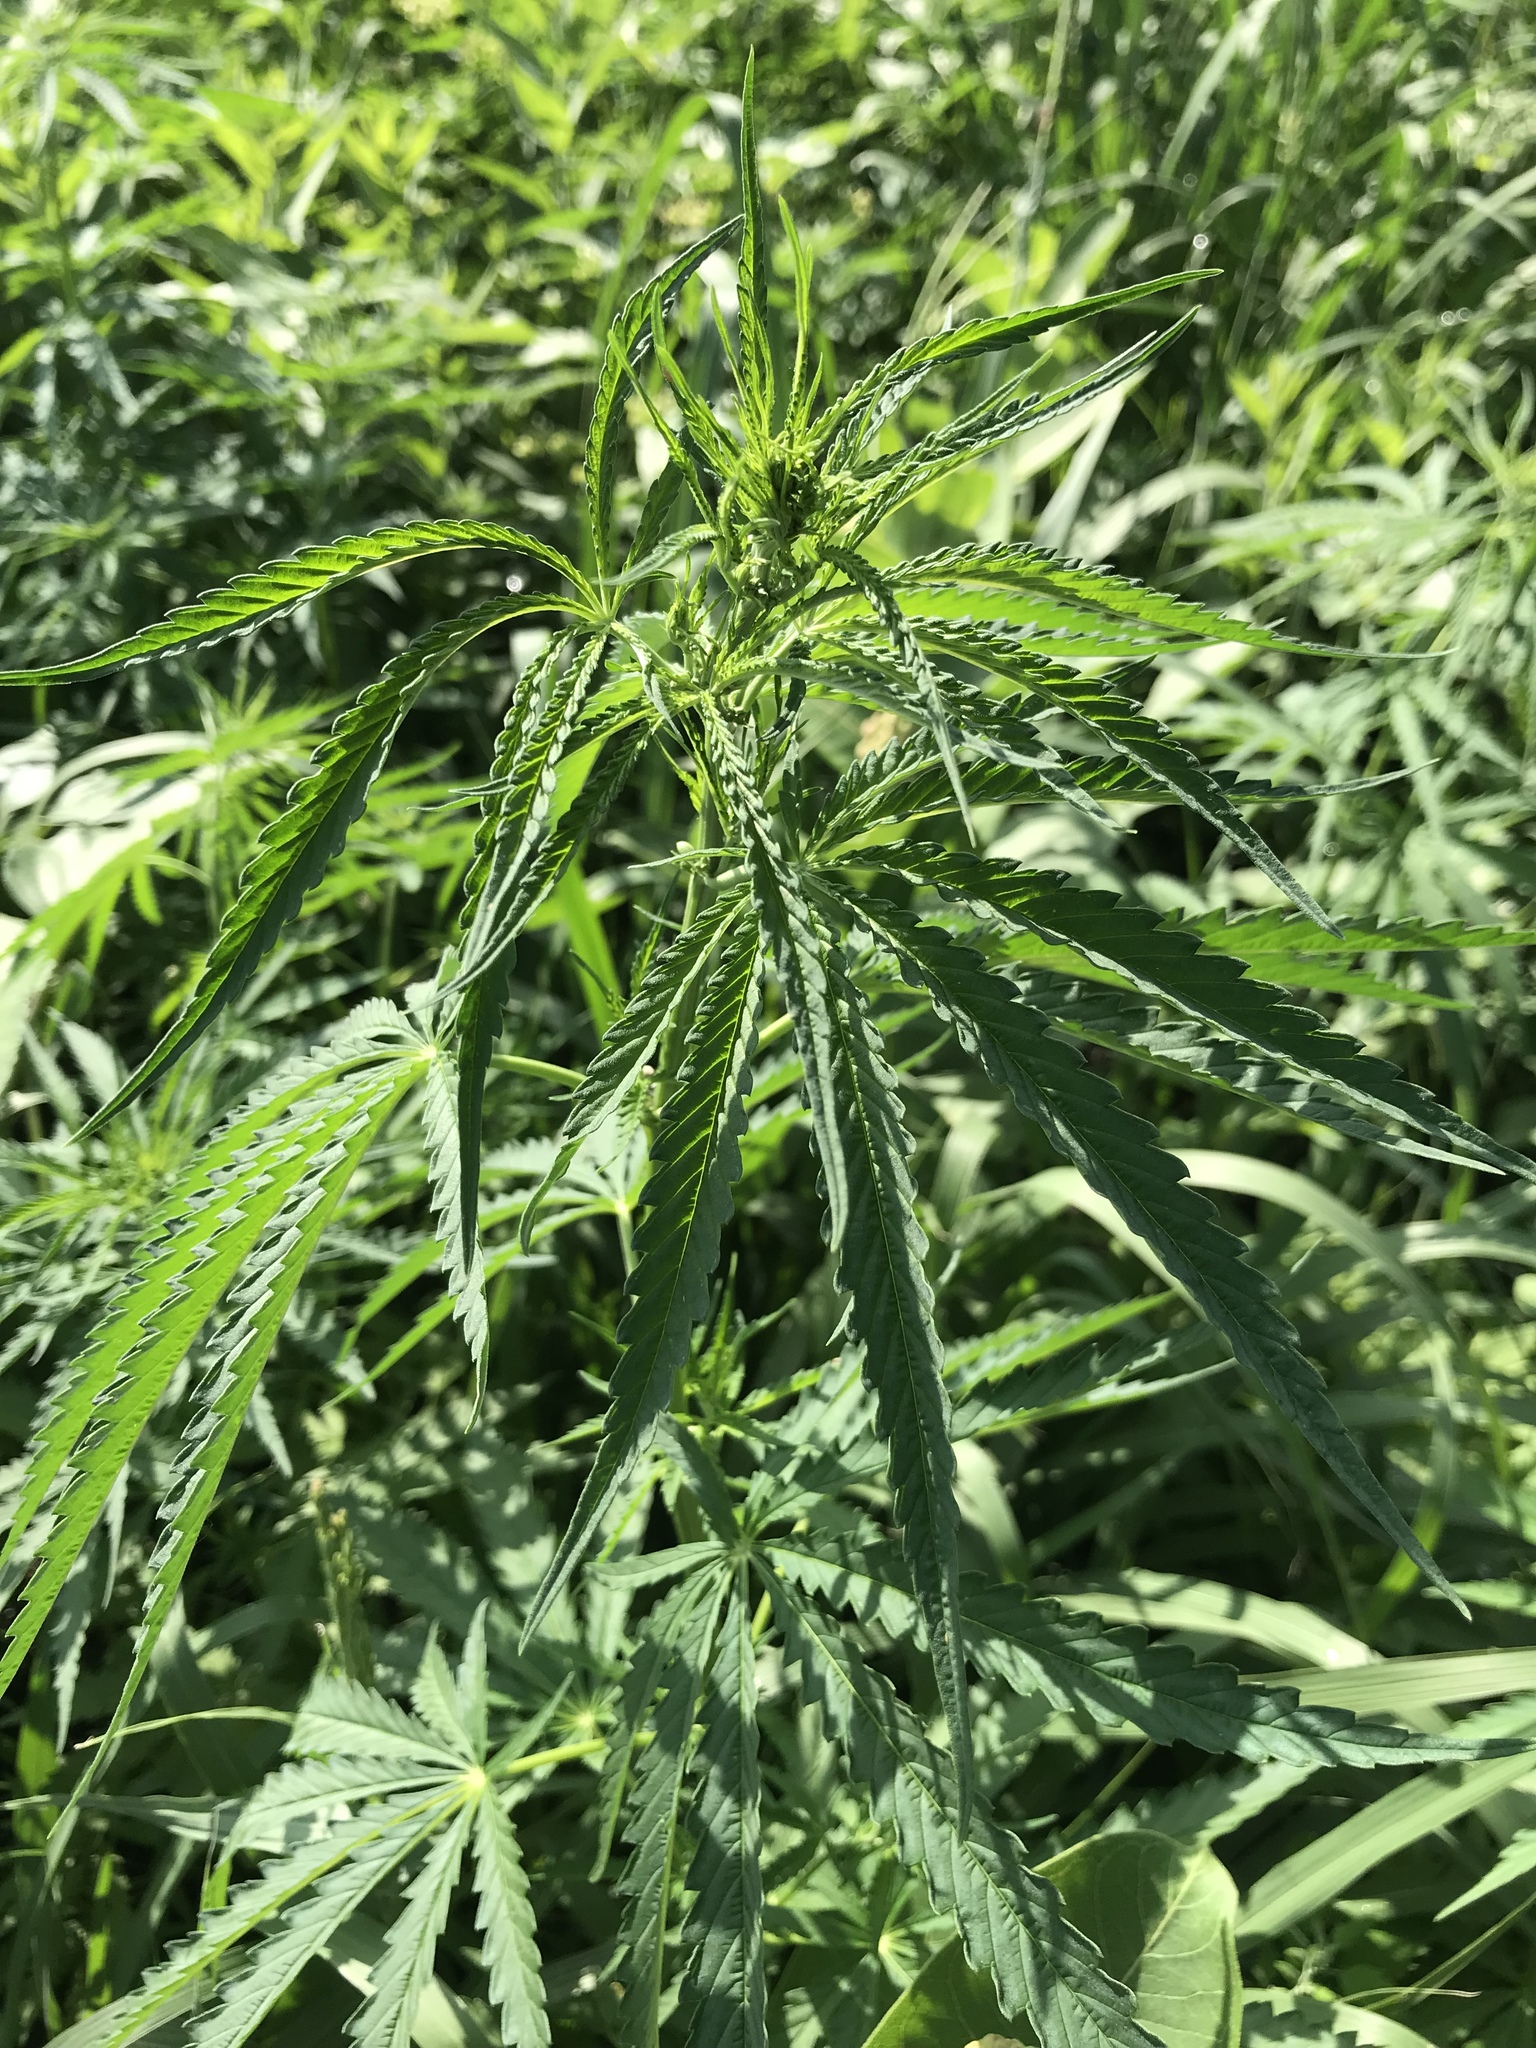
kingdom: Plantae
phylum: Tracheophyta
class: Magnoliopsida
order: Rosales
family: Cannabaceae
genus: Cannabis
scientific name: Cannabis sativa
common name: Hemp
